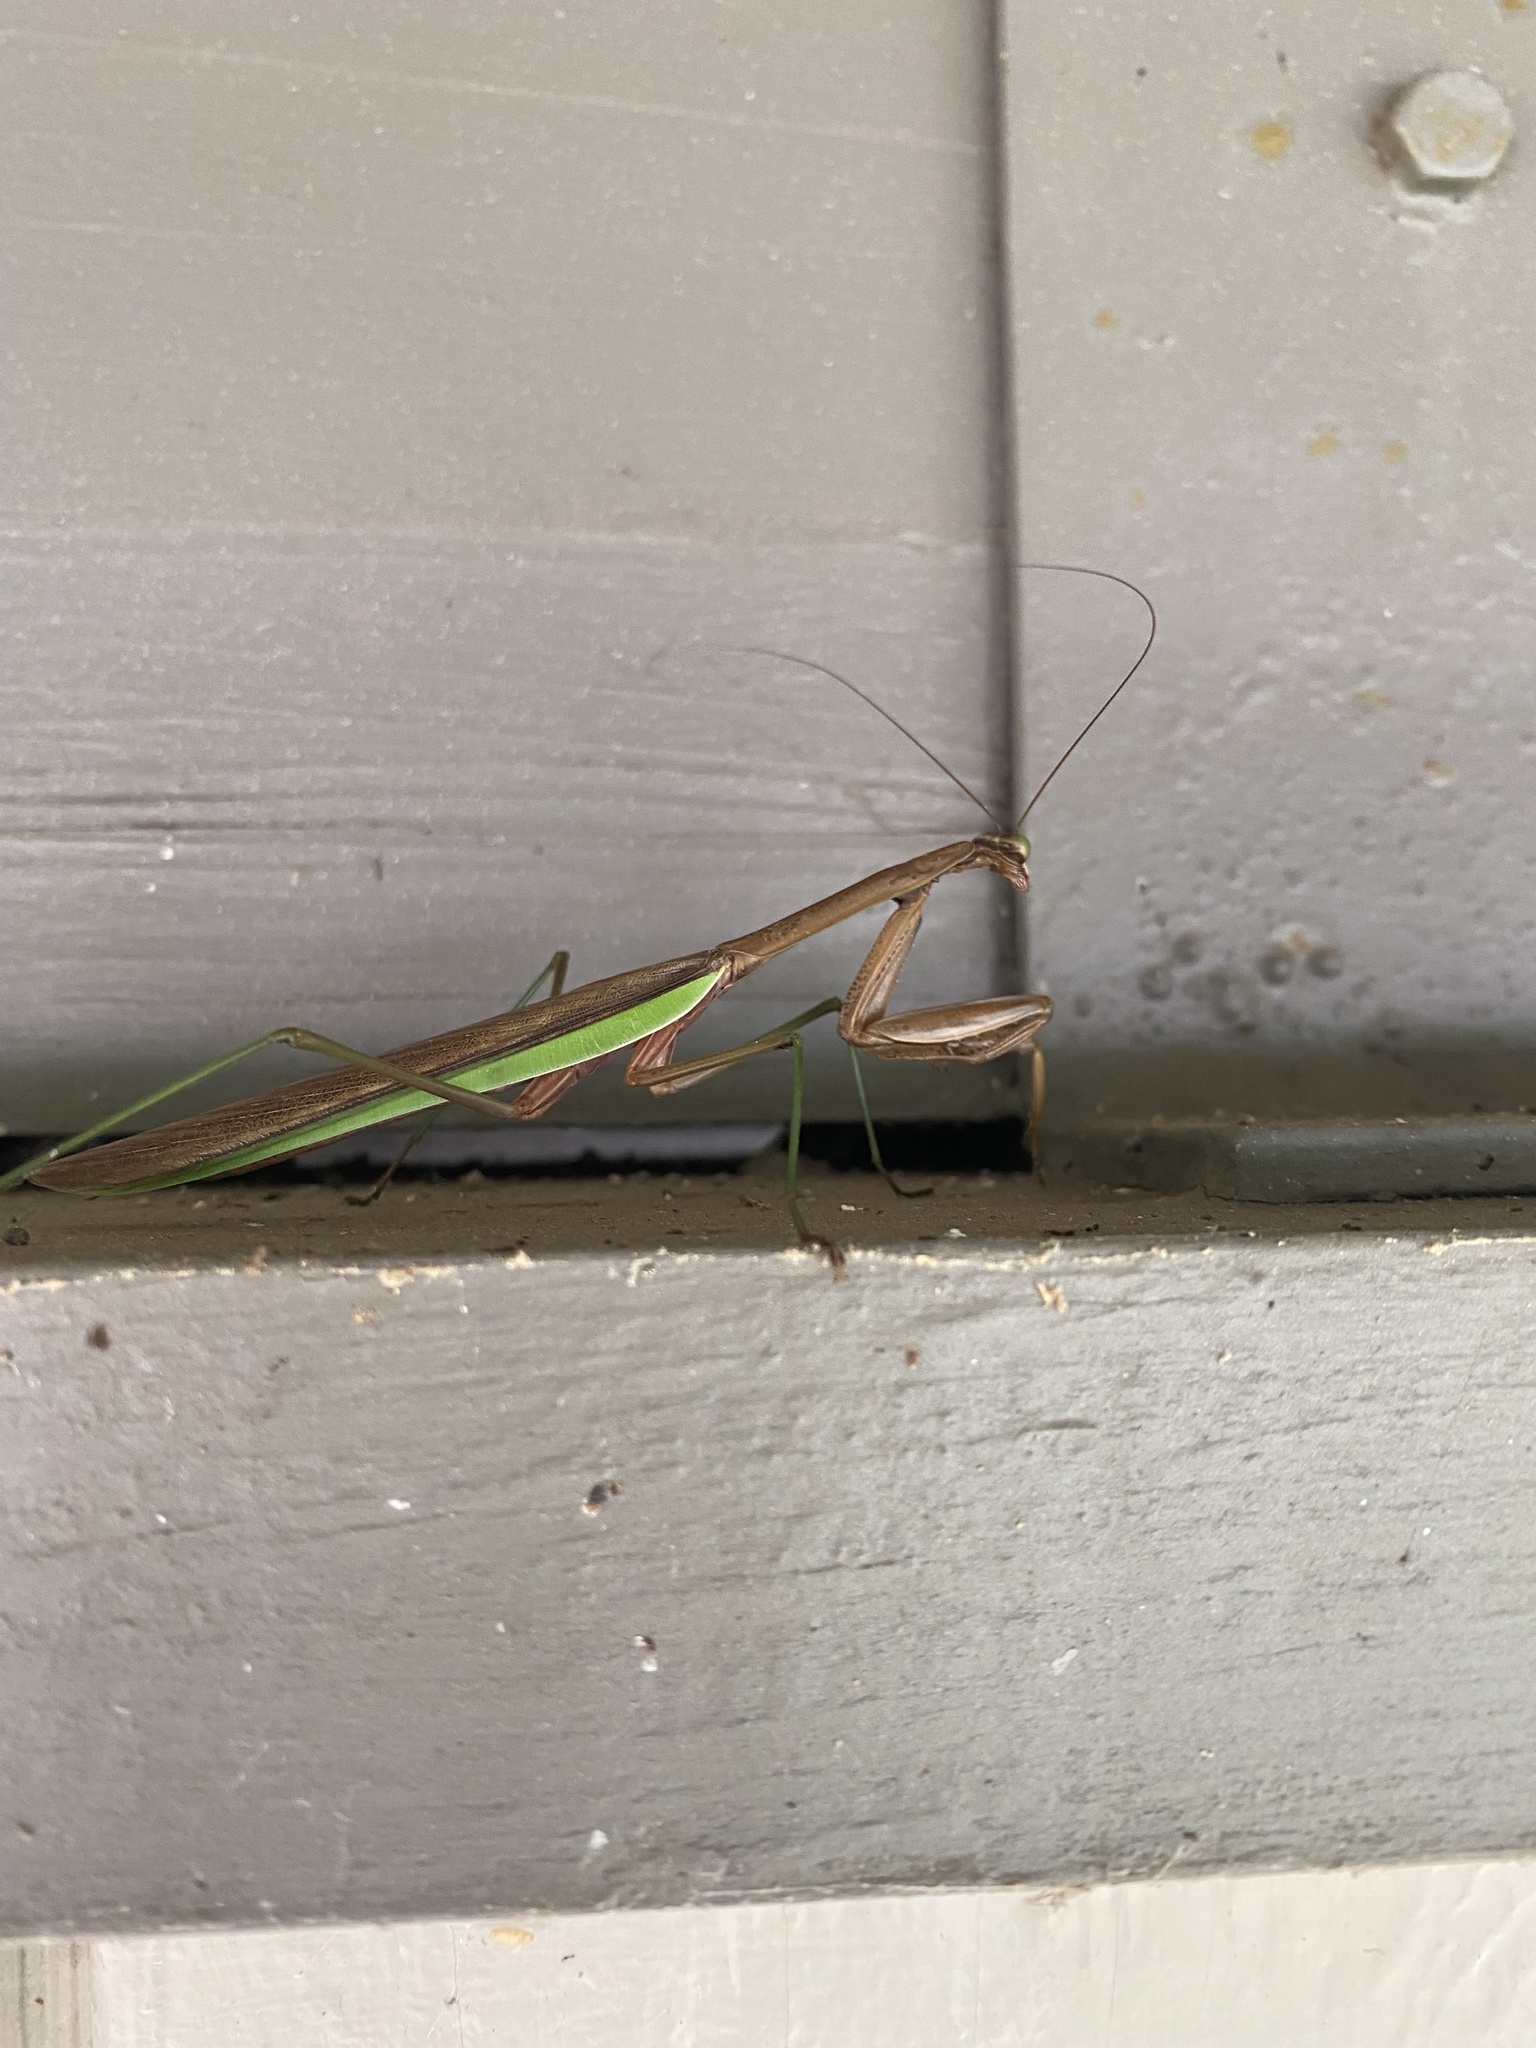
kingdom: Animalia
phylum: Arthropoda
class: Insecta
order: Mantodea
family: Mantidae
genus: Tenodera
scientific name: Tenodera sinensis
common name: Chinese mantis
